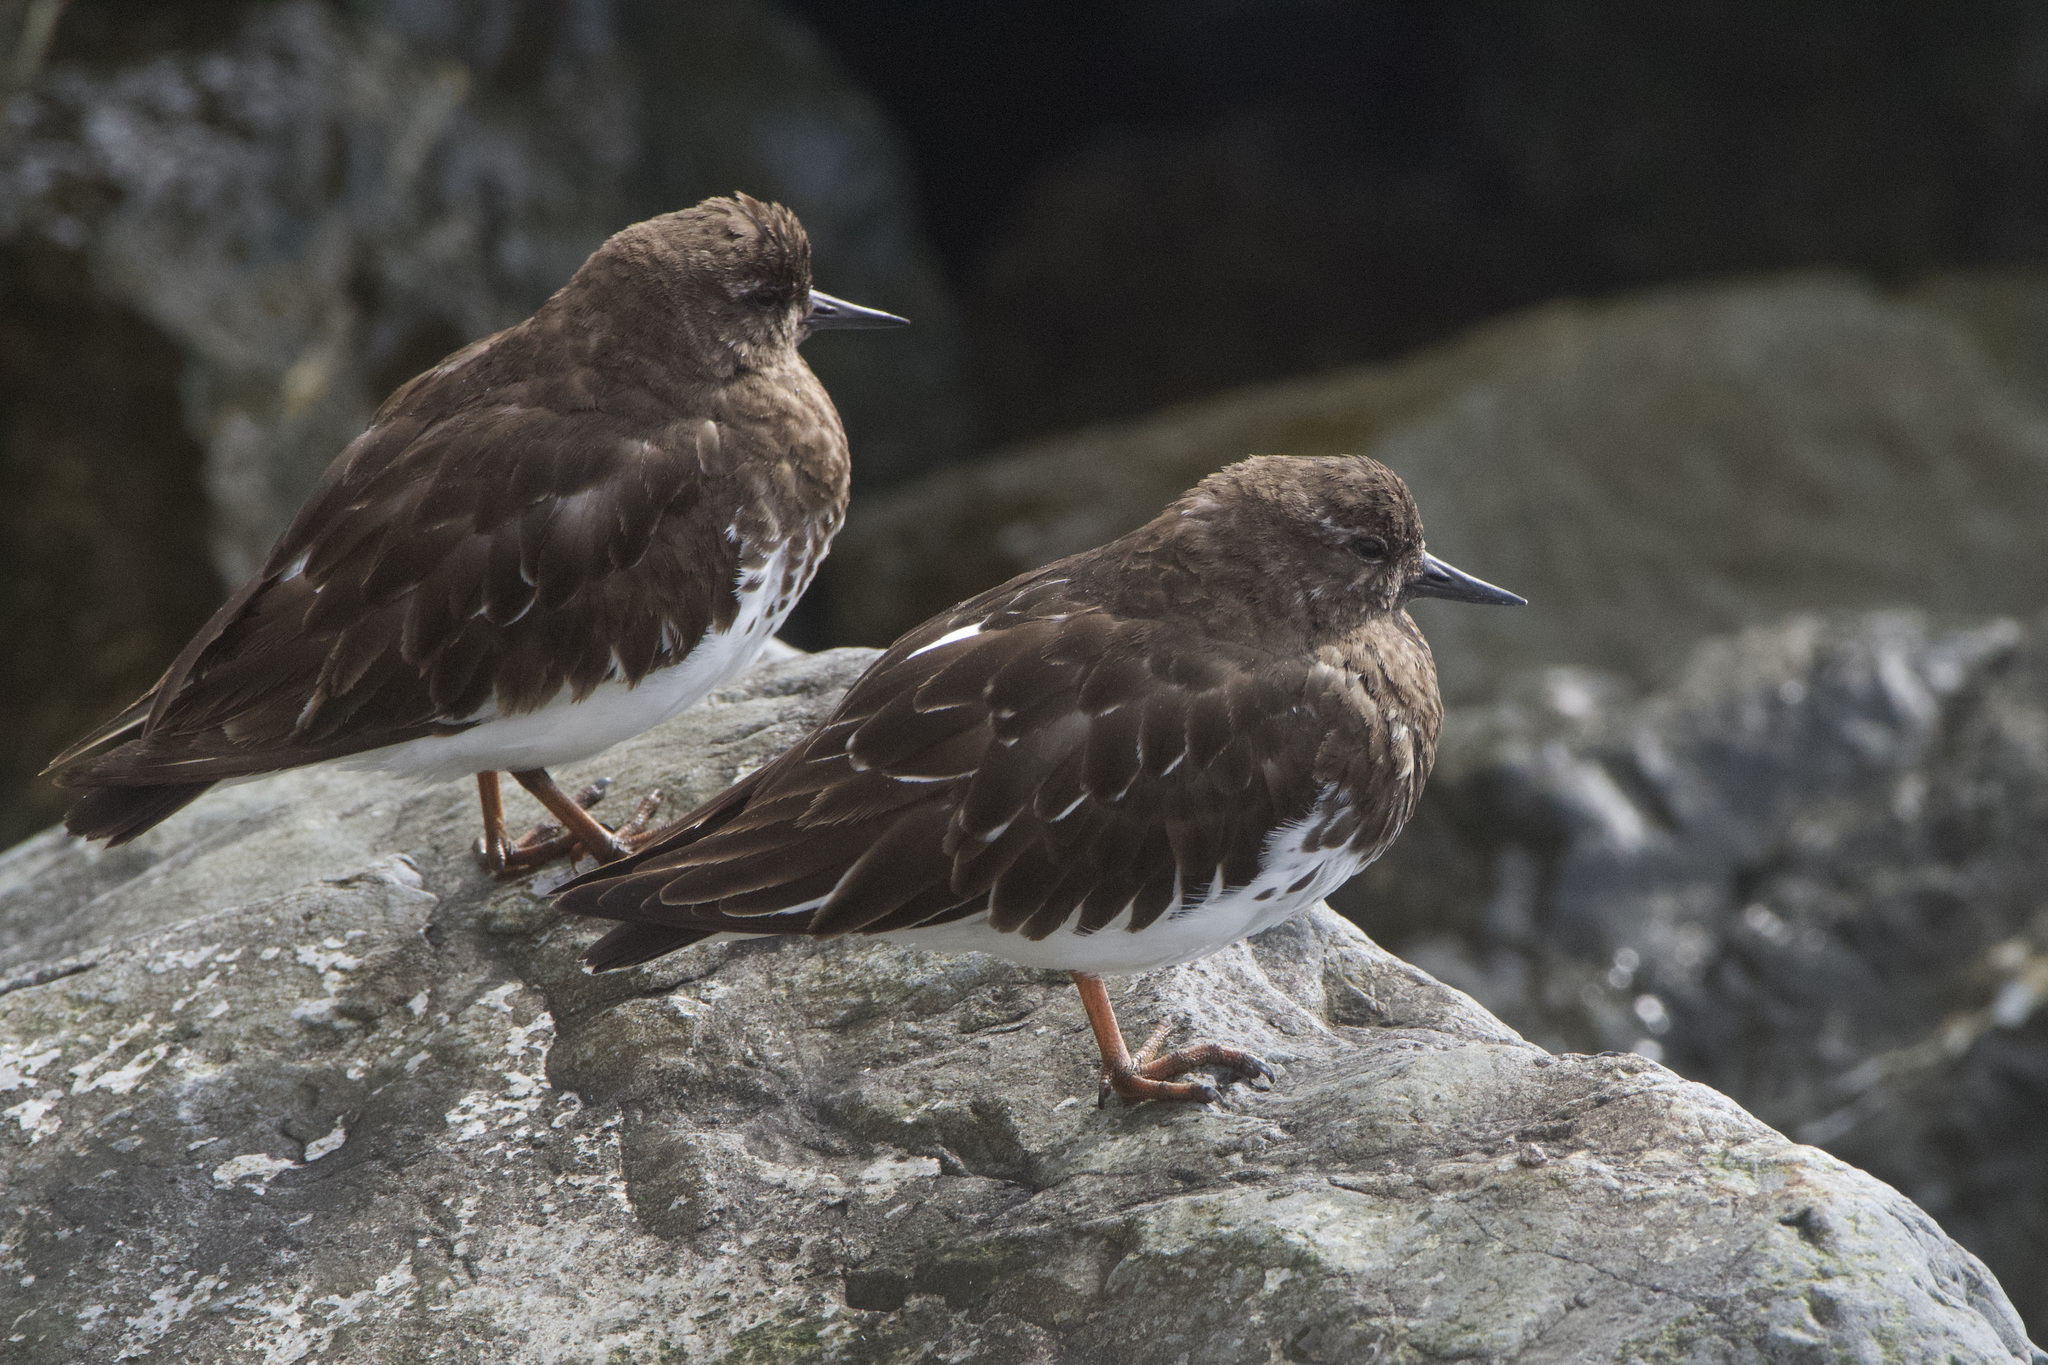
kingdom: Animalia
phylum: Chordata
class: Aves
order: Charadriiformes
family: Scolopacidae
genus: Arenaria
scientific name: Arenaria melanocephala
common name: Black turnstone
